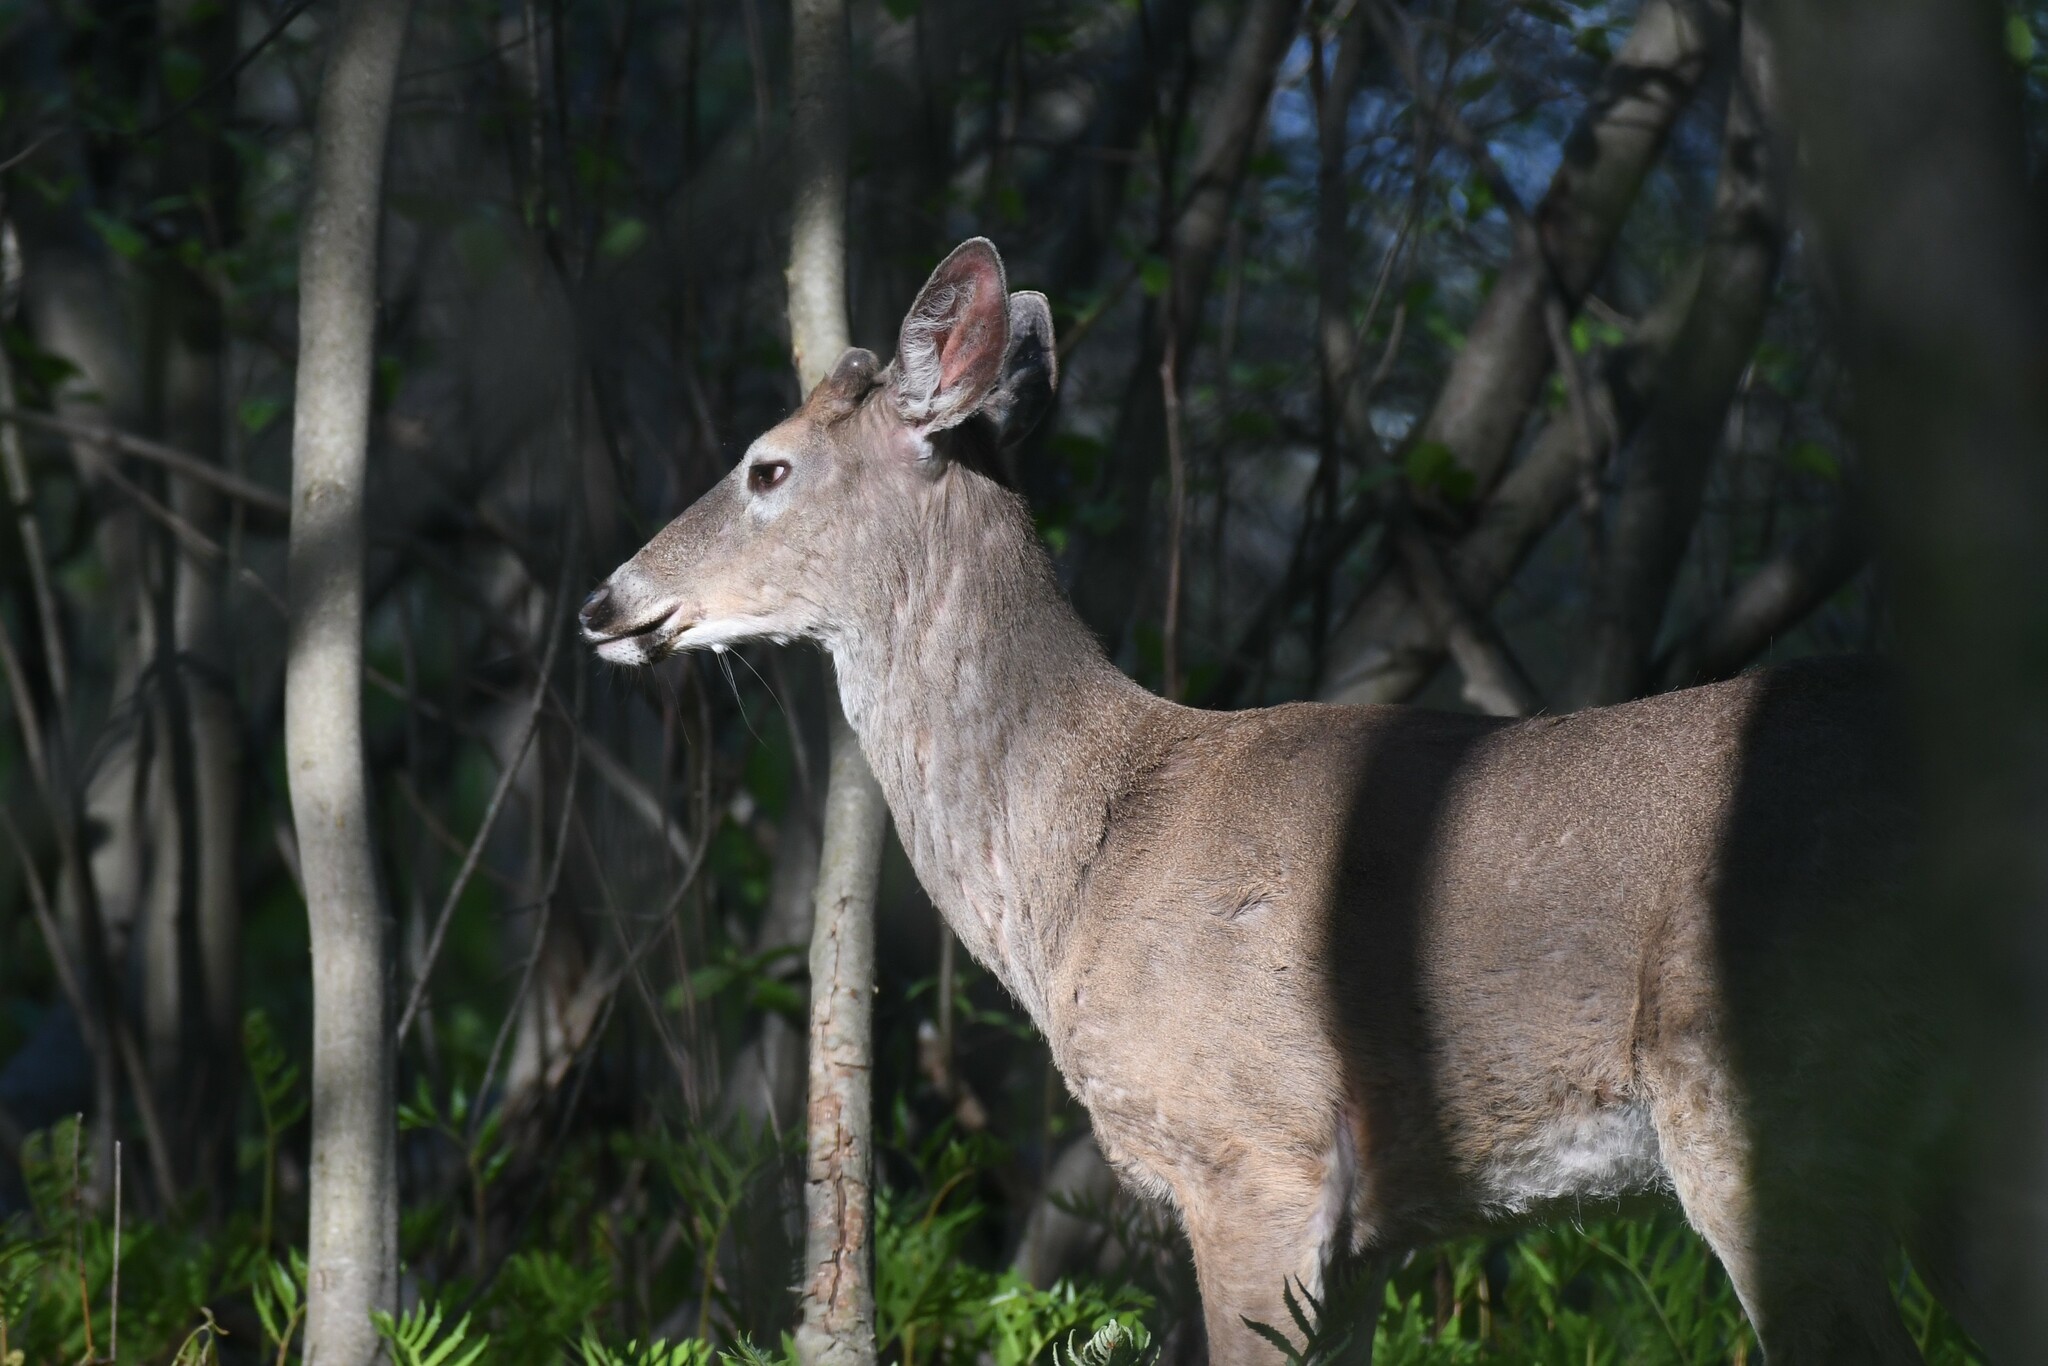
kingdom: Animalia
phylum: Chordata
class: Mammalia
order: Artiodactyla
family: Cervidae
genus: Odocoileus
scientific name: Odocoileus virginianus
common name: White-tailed deer
